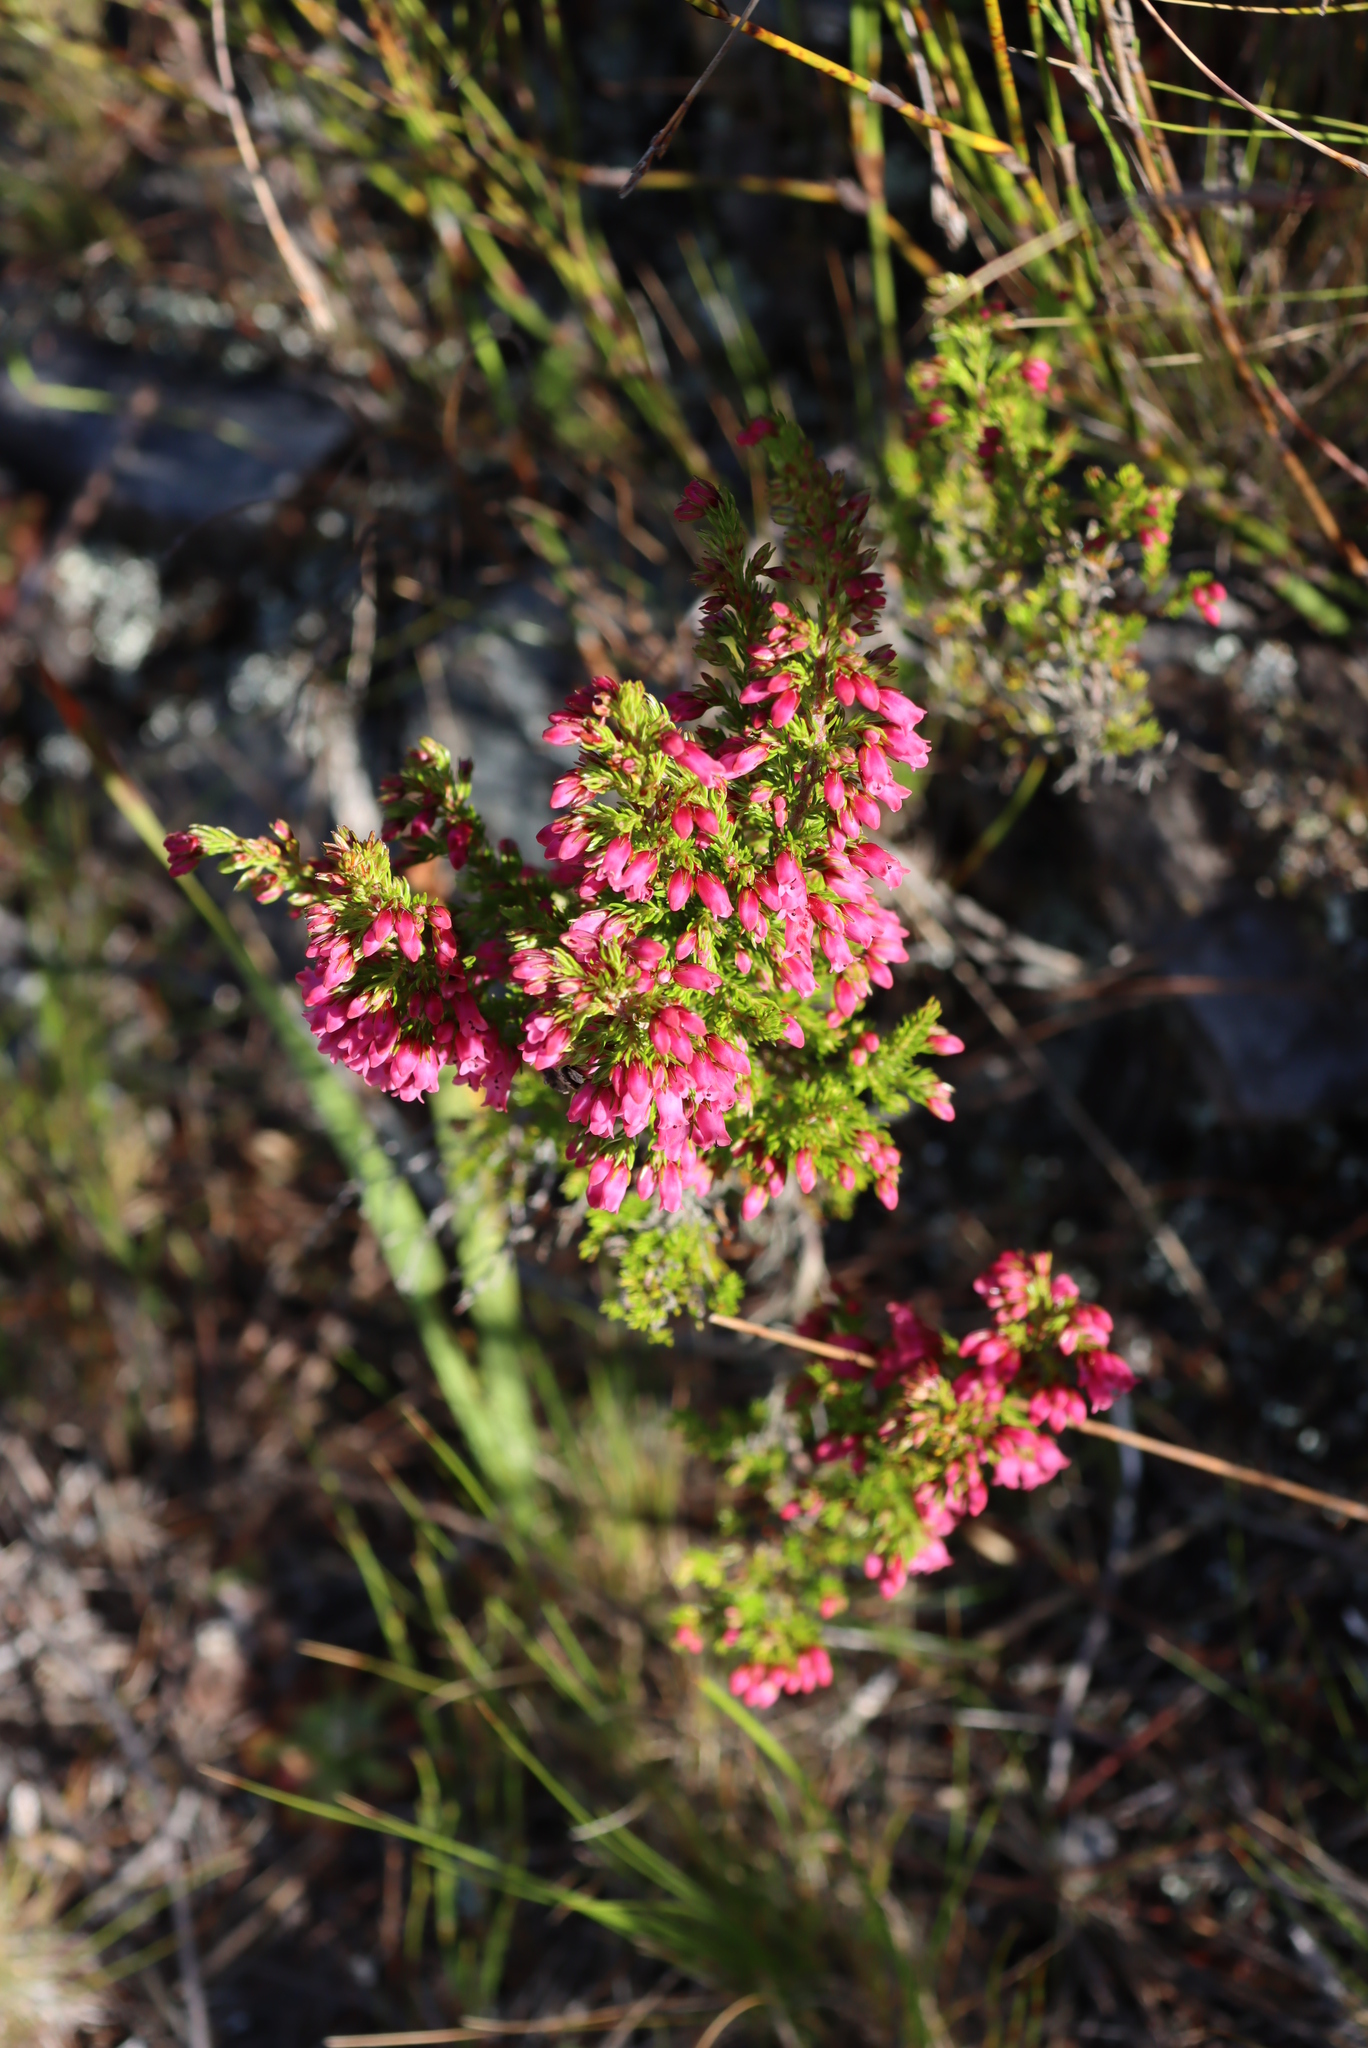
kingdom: Plantae
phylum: Tracheophyta
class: Magnoliopsida
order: Ericales
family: Ericaceae
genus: Erica
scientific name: Erica sitiens
